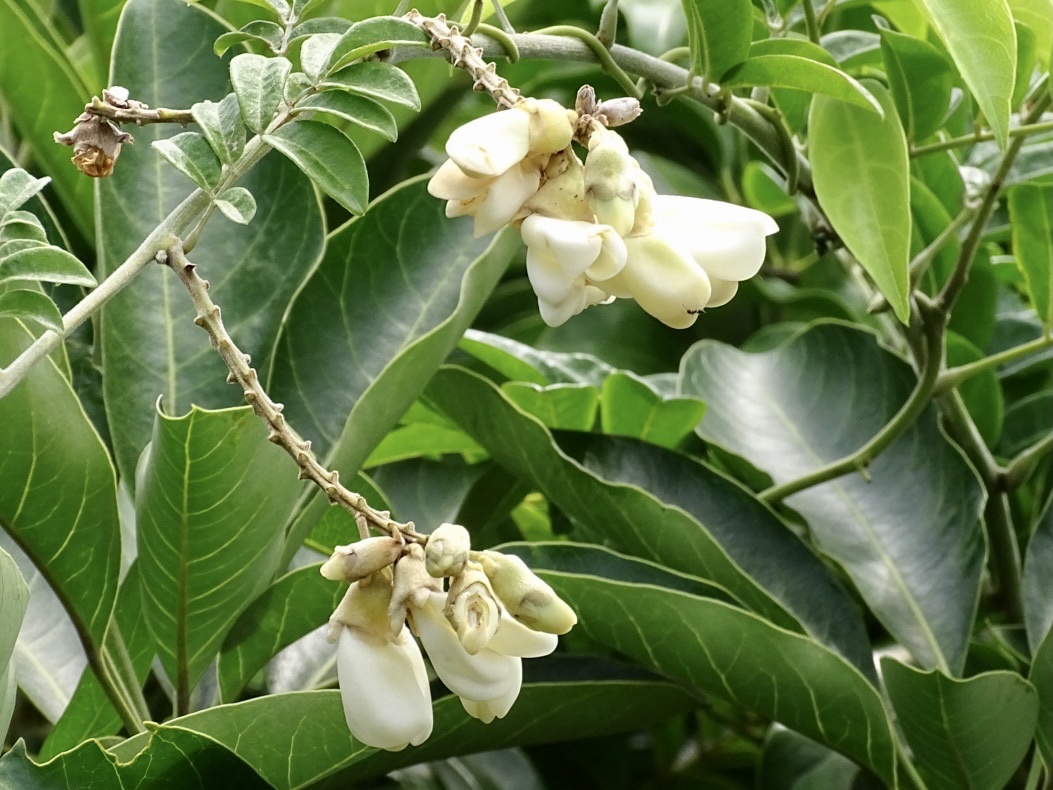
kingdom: Plantae
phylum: Tracheophyta
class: Magnoliopsida
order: Fabales
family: Fabaceae
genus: Nanhaia
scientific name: Nanhaia speciosa
